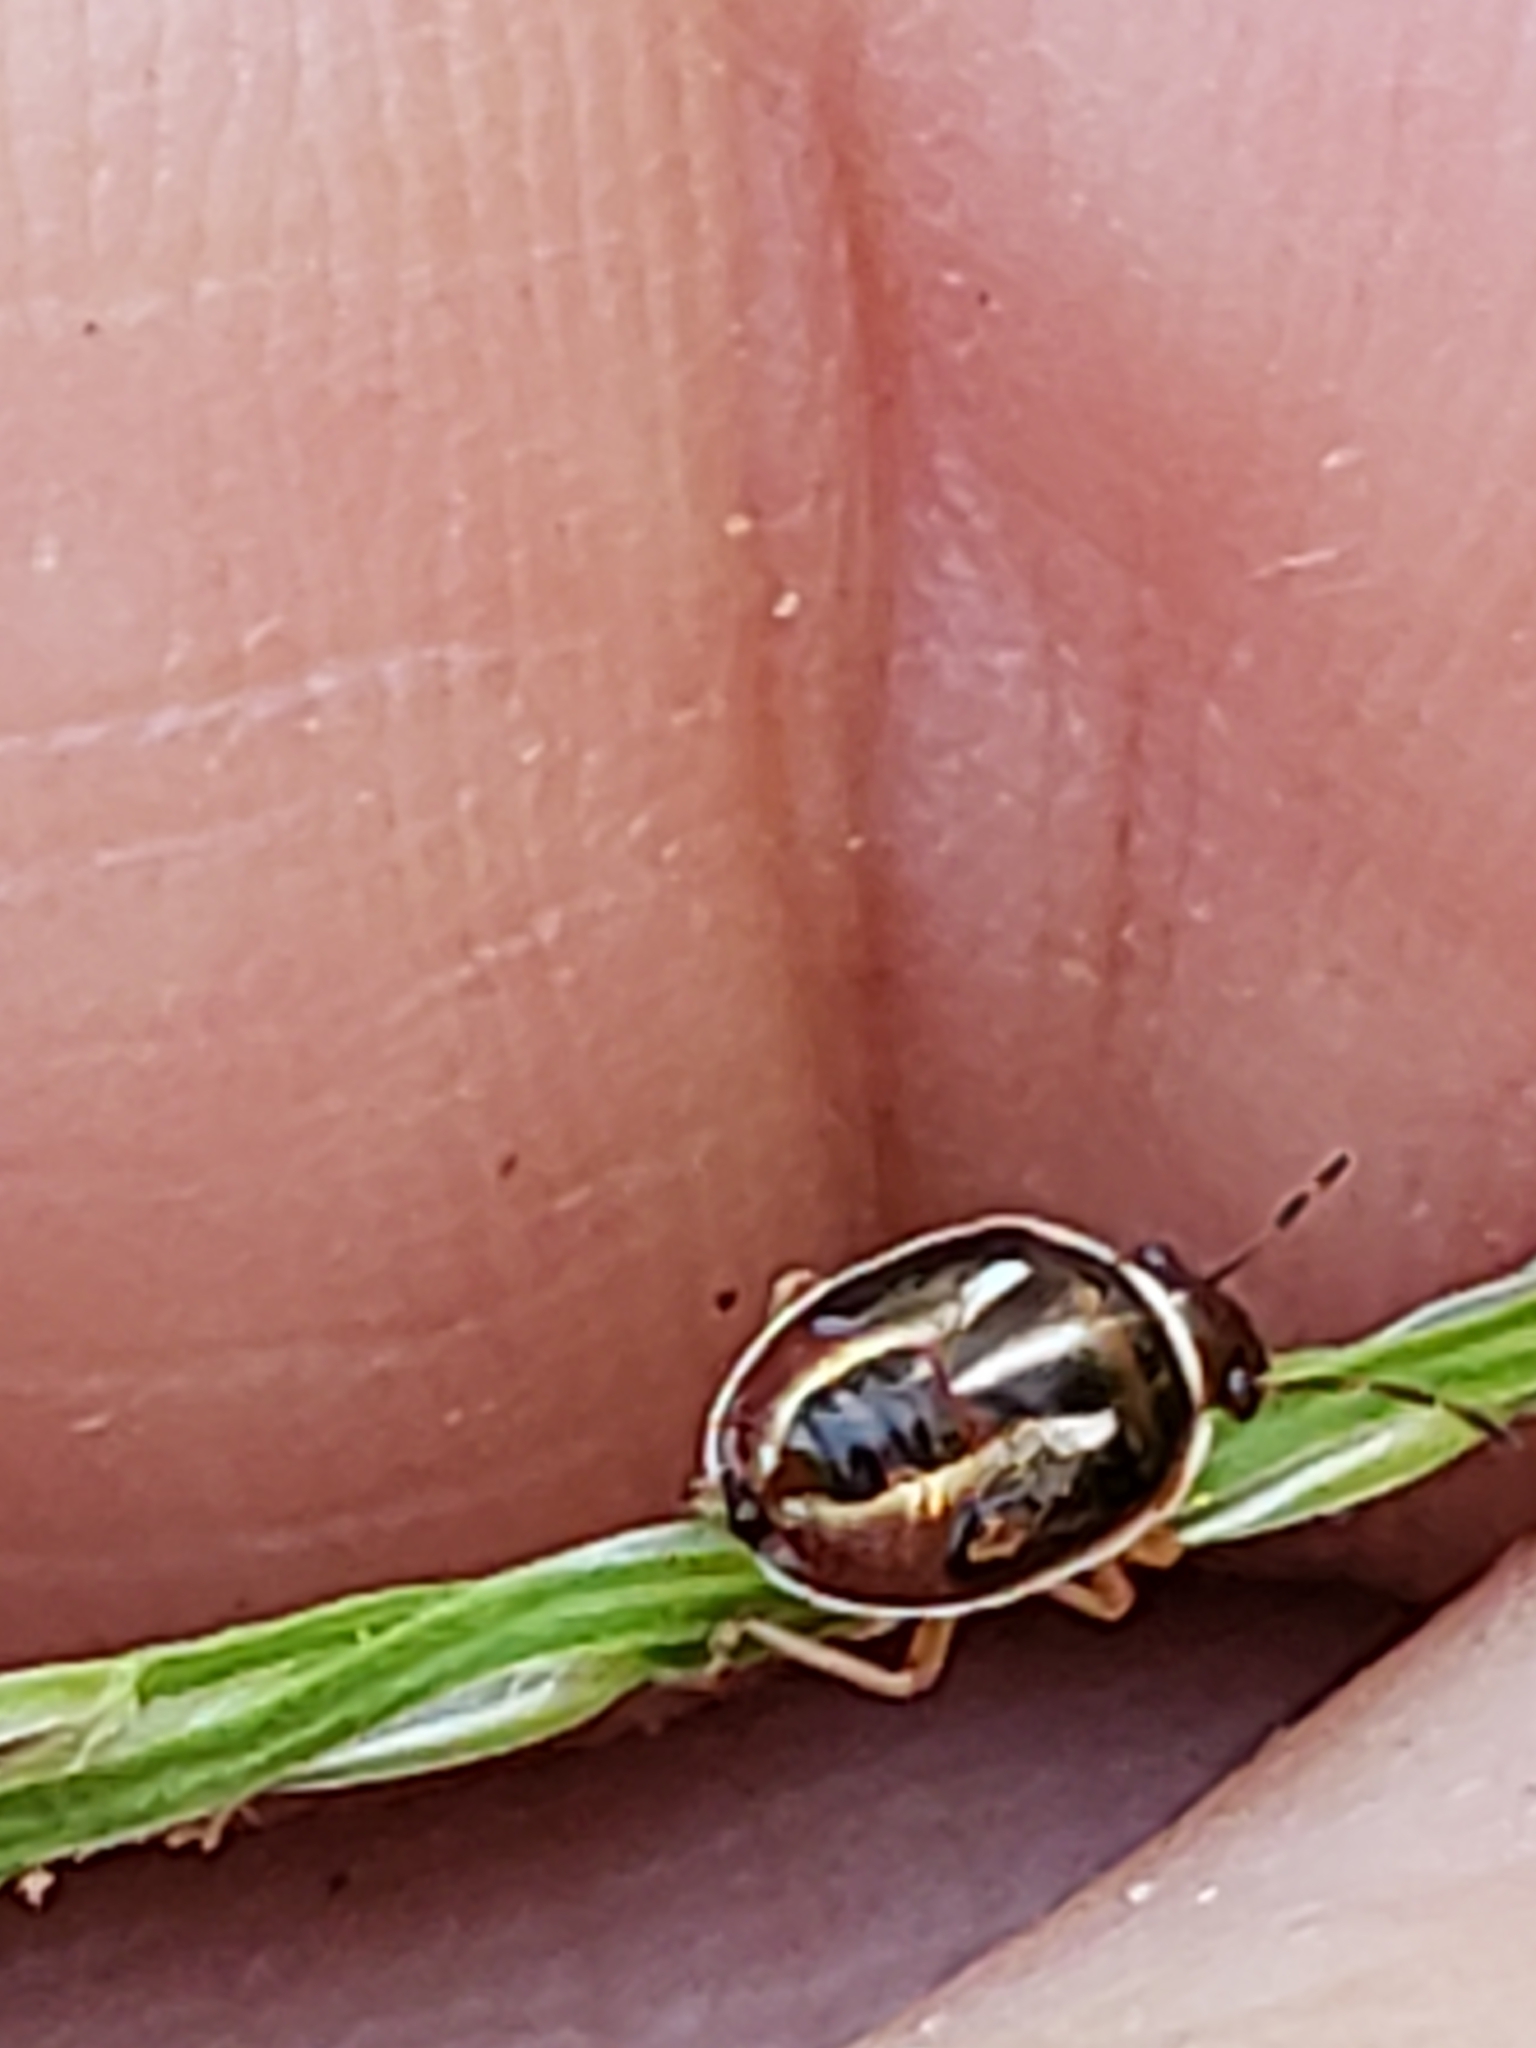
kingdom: Animalia
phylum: Arthropoda
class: Insecta
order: Hemiptera
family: Pentatomidae
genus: Mormidea
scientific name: Mormidea lugens
